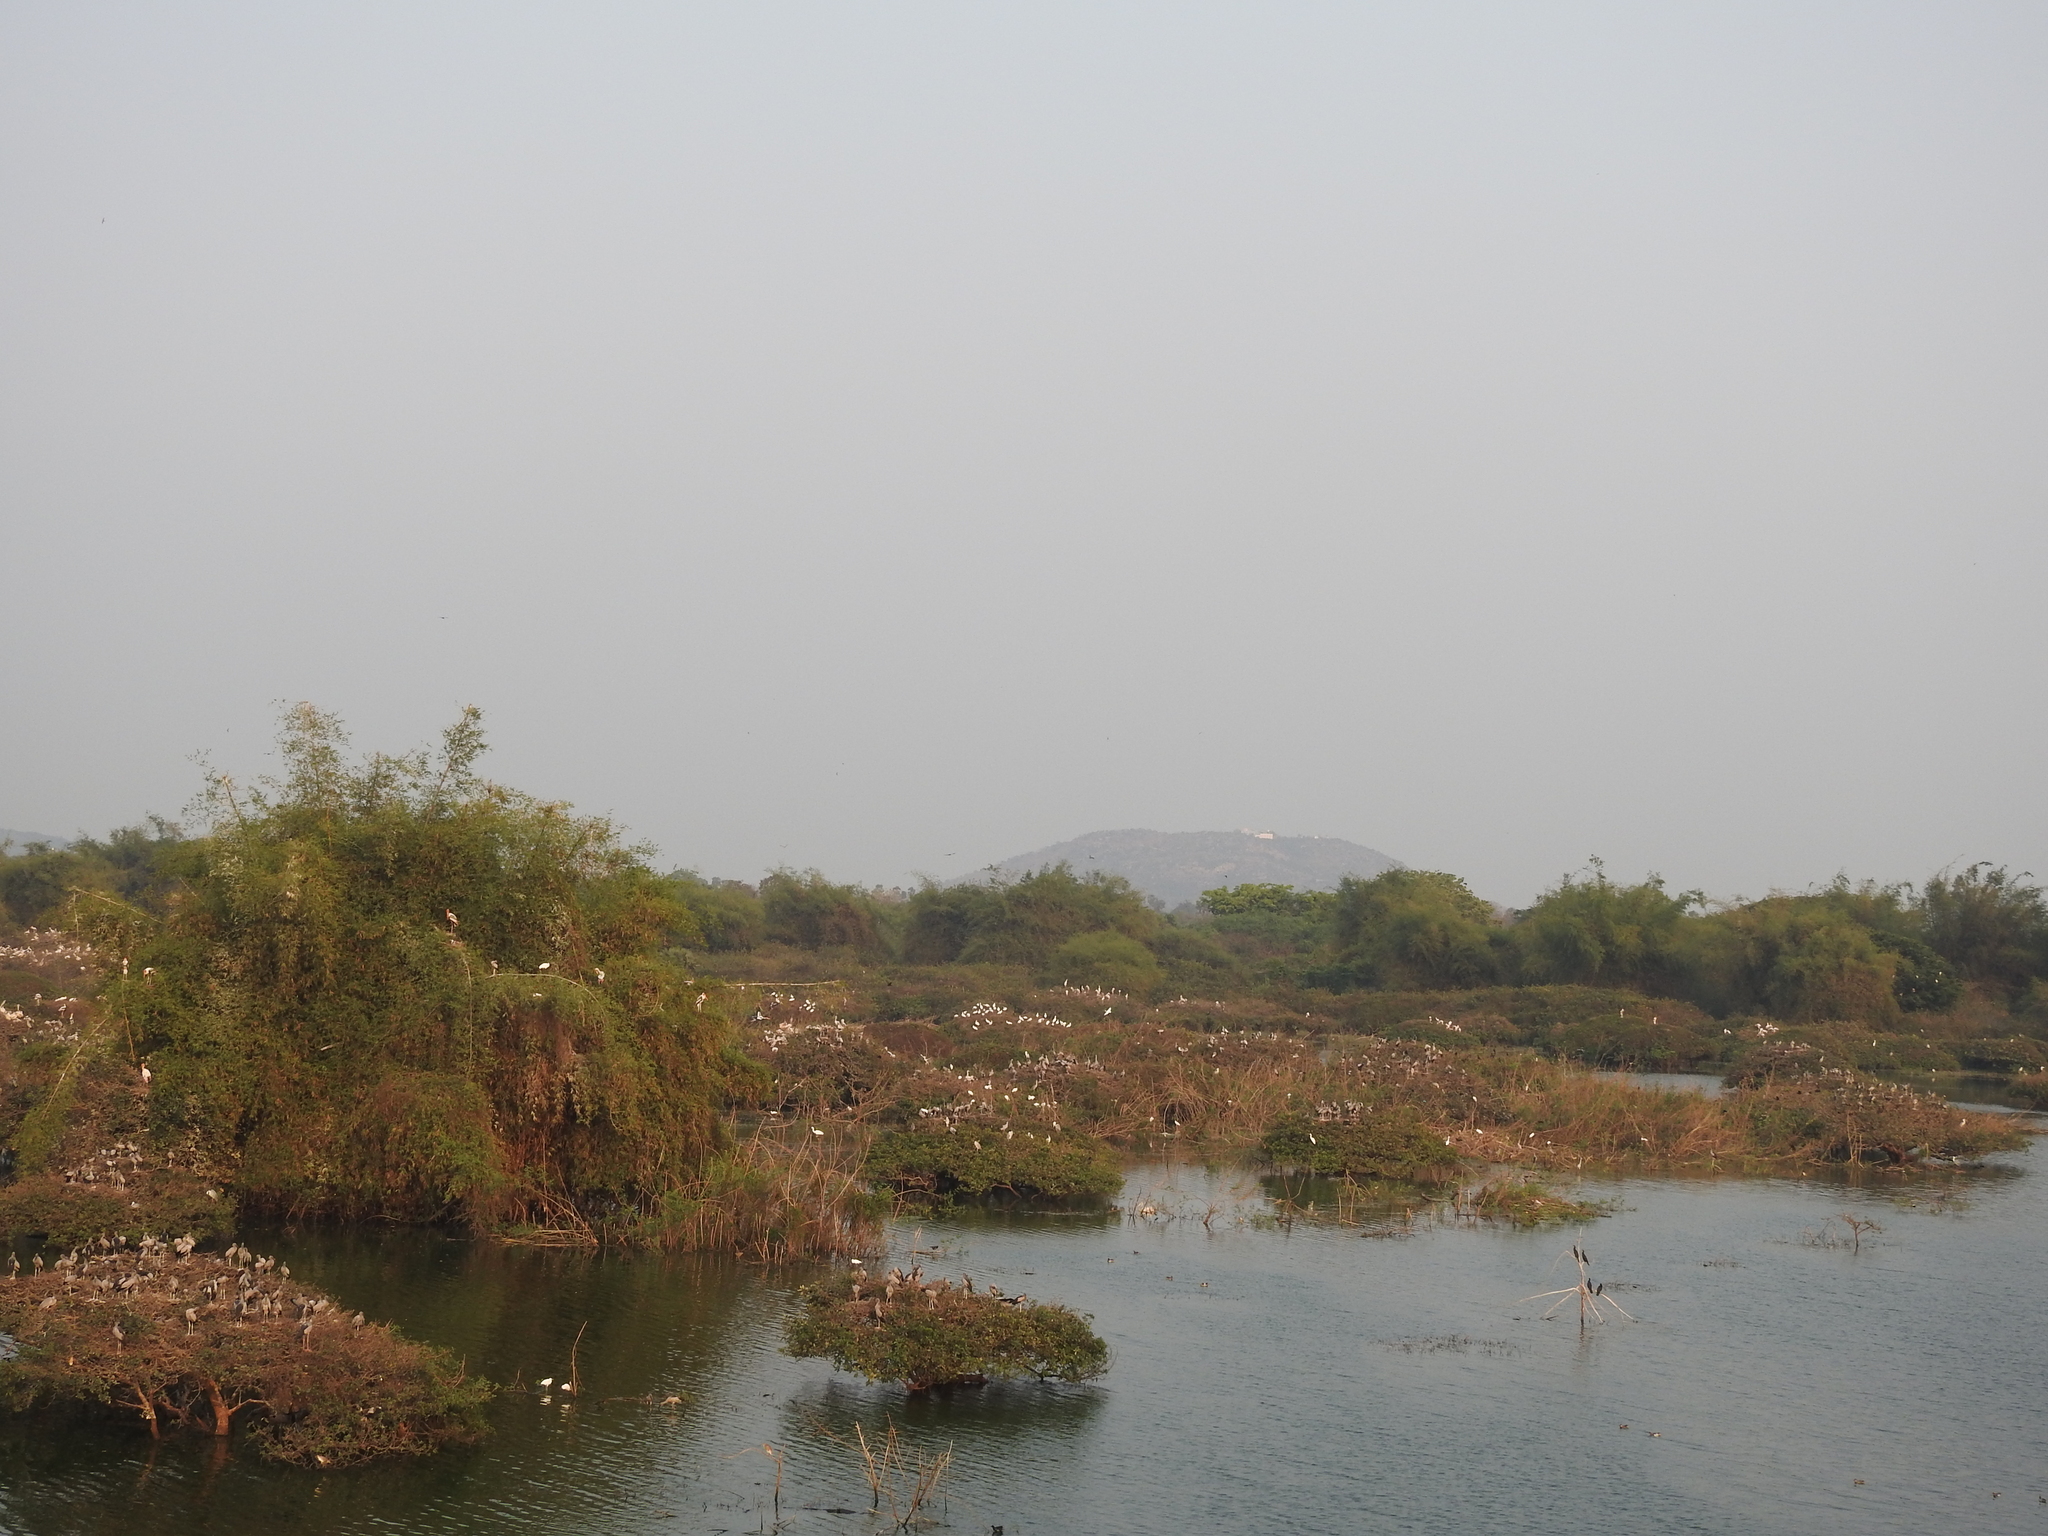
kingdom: Animalia
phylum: Chordata
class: Aves
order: Ciconiiformes
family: Ciconiidae
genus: Anastomus
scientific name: Anastomus oscitans
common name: Asian openbill
